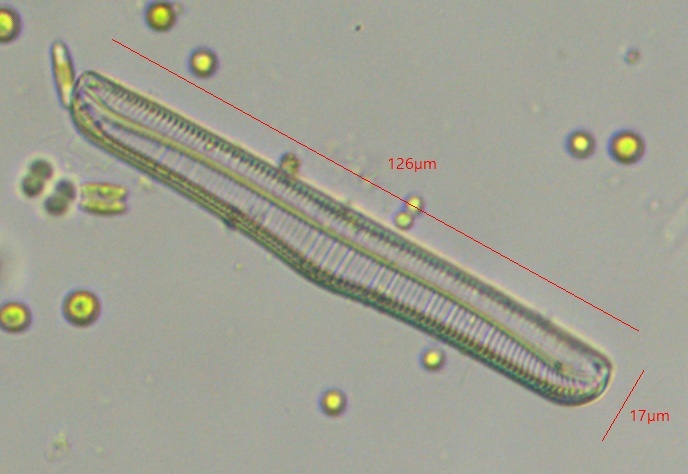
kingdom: Chromista
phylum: Ochrophyta
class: Bacillariophyceae
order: Rhopalodiales
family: Rhopalodiaceae
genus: Epithemia
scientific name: Epithemia gibba
